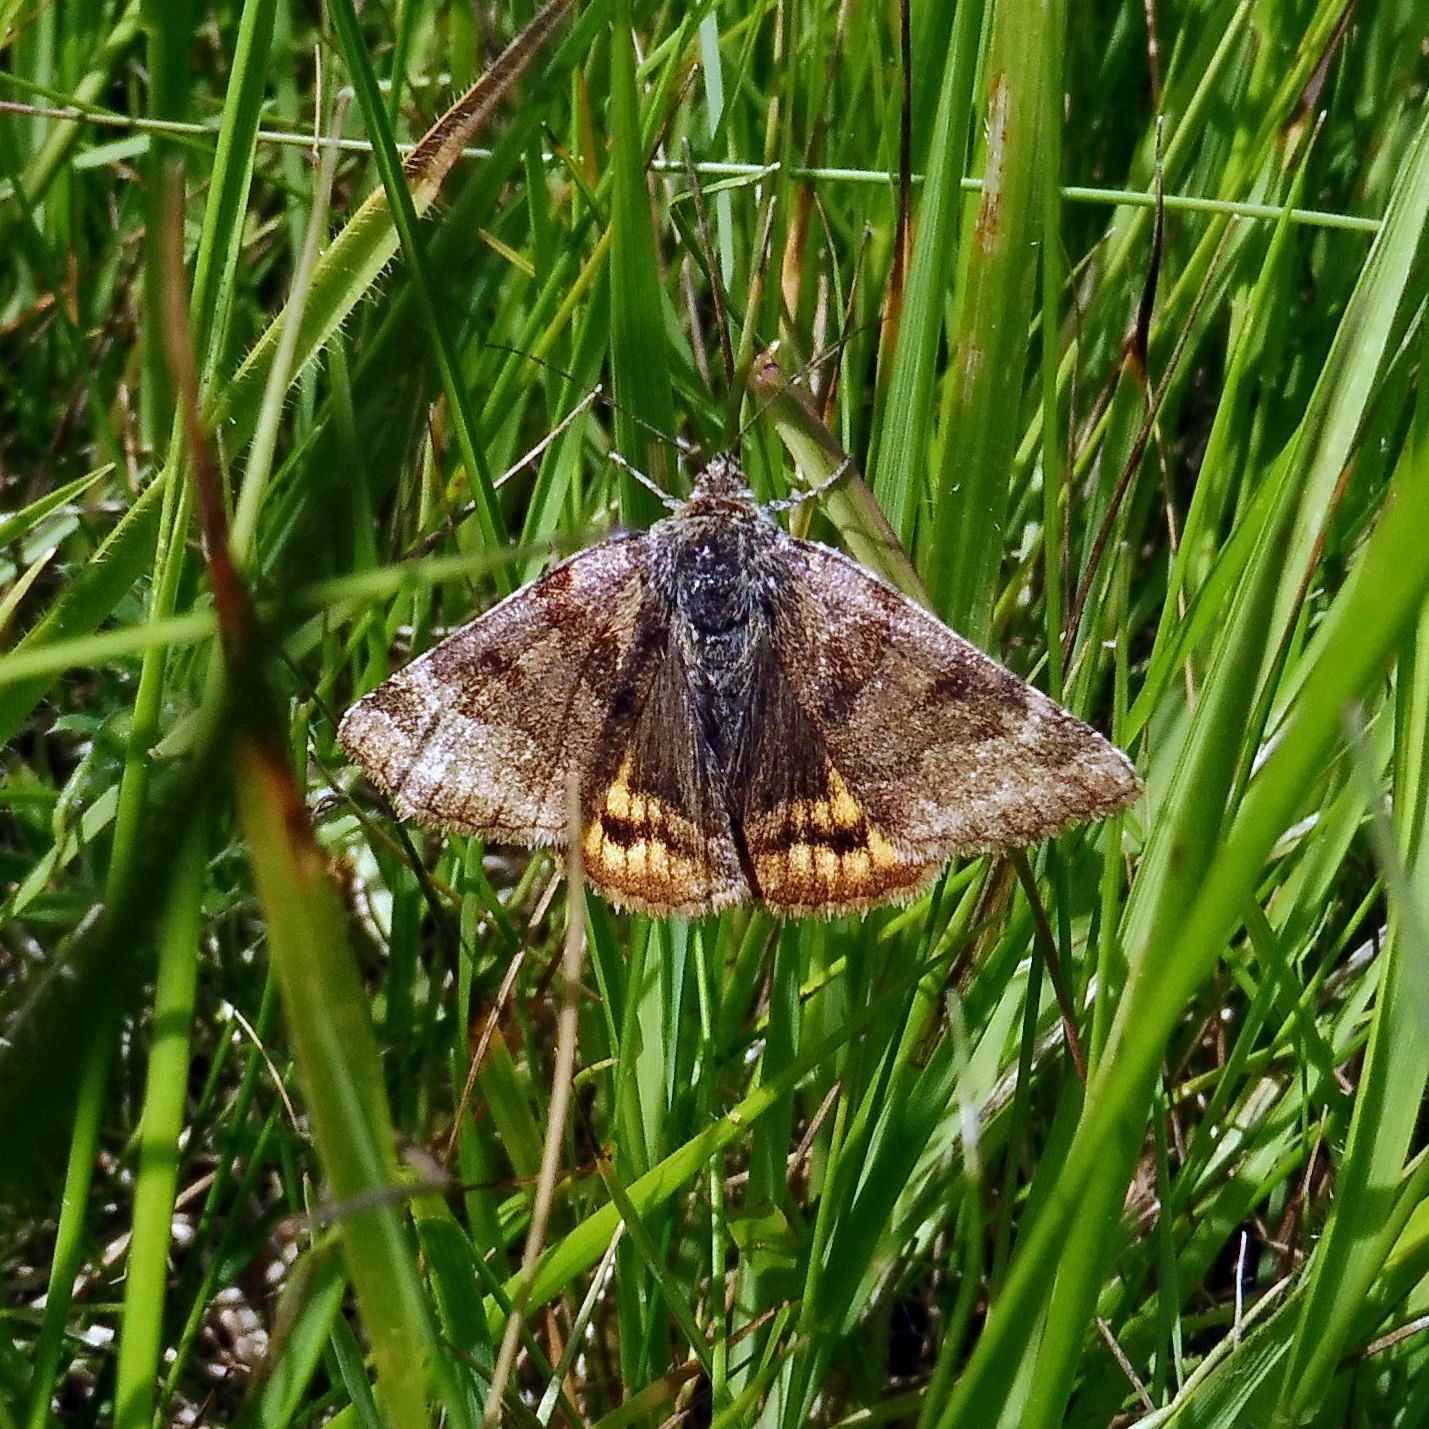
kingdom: Animalia
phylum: Arthropoda
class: Insecta
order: Lepidoptera
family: Erebidae
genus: Euclidia
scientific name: Euclidia glyphica
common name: Burnet companion
